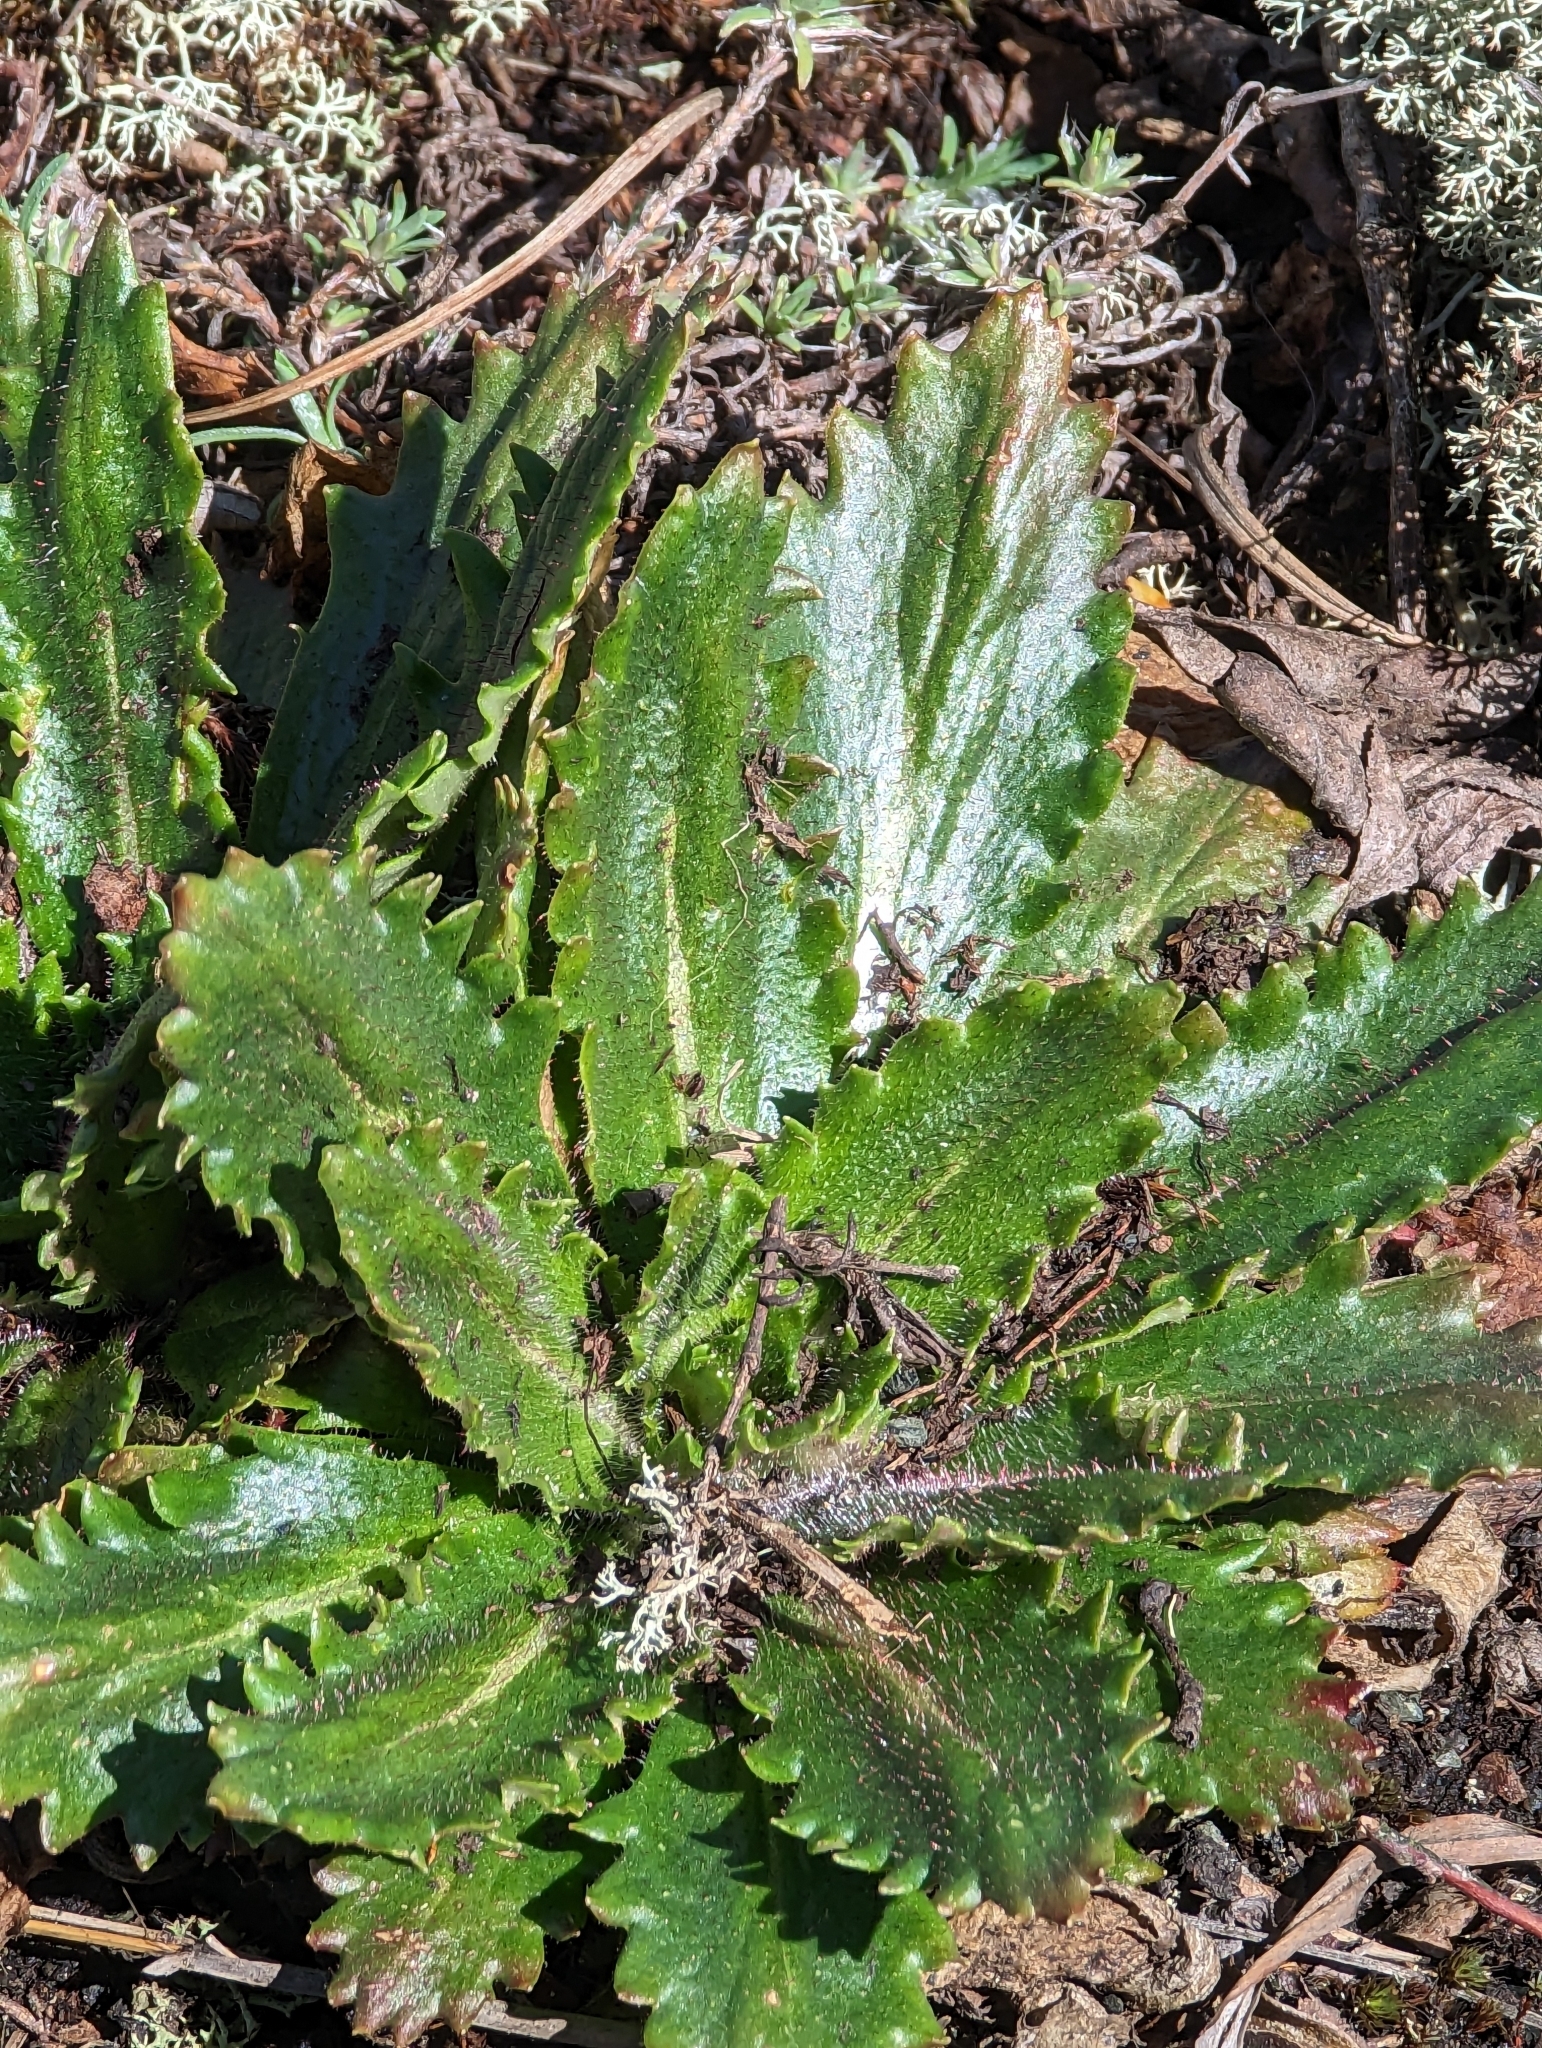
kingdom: Plantae
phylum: Tracheophyta
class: Magnoliopsida
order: Saxifragales
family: Saxifragaceae
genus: Micranthes
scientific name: Micranthes micranthidifolia
